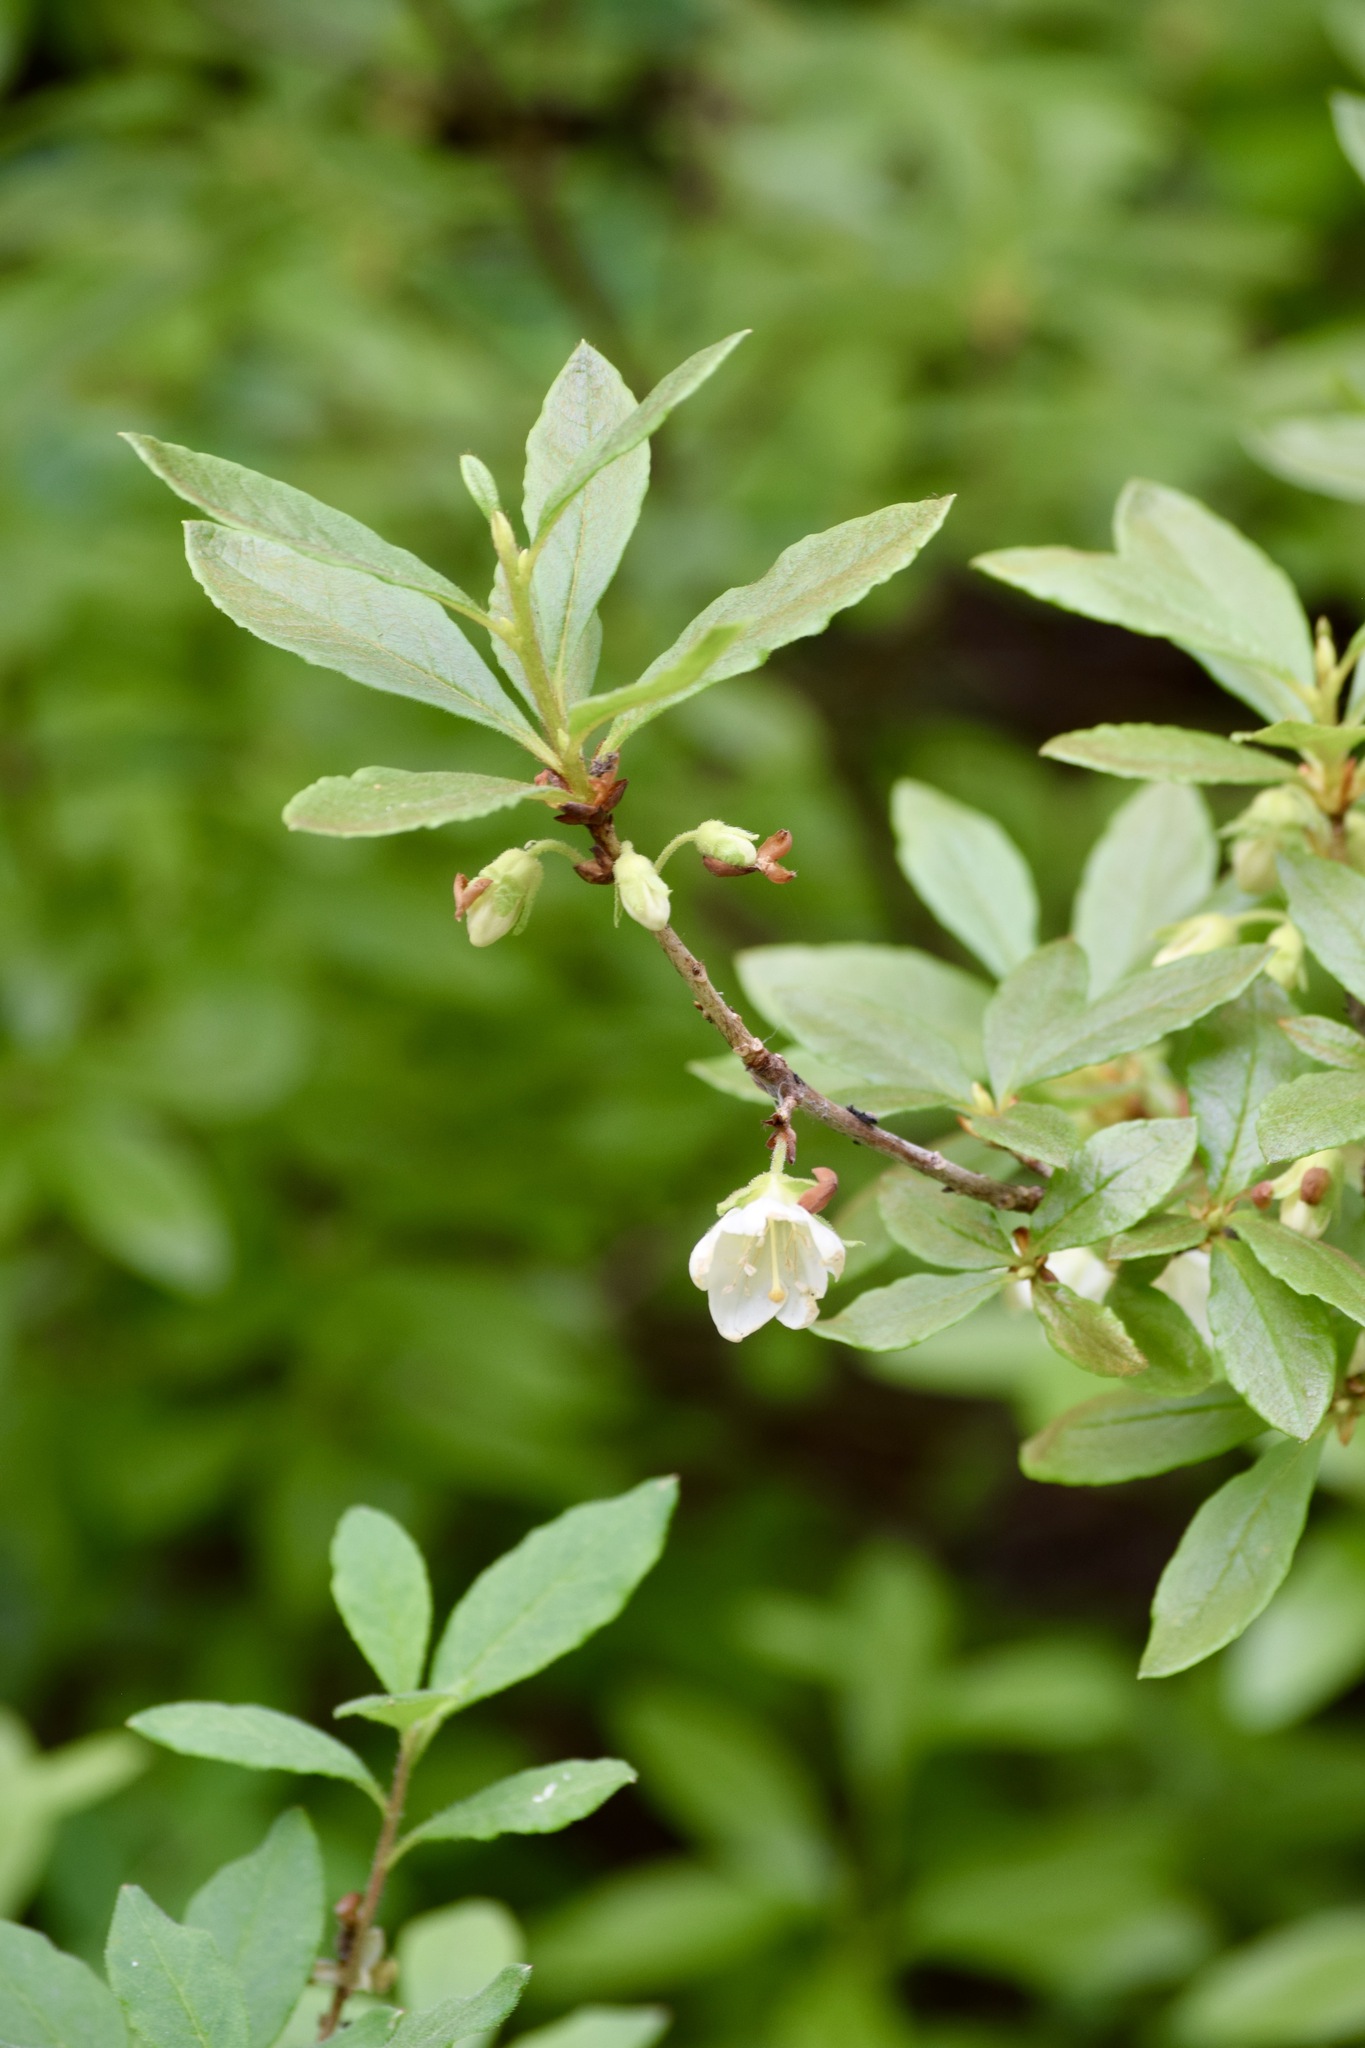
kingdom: Plantae
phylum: Tracheophyta
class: Magnoliopsida
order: Ericales
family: Ericaceae
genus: Rhododendron
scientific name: Rhododendron albiflorum
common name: White rhododendron
